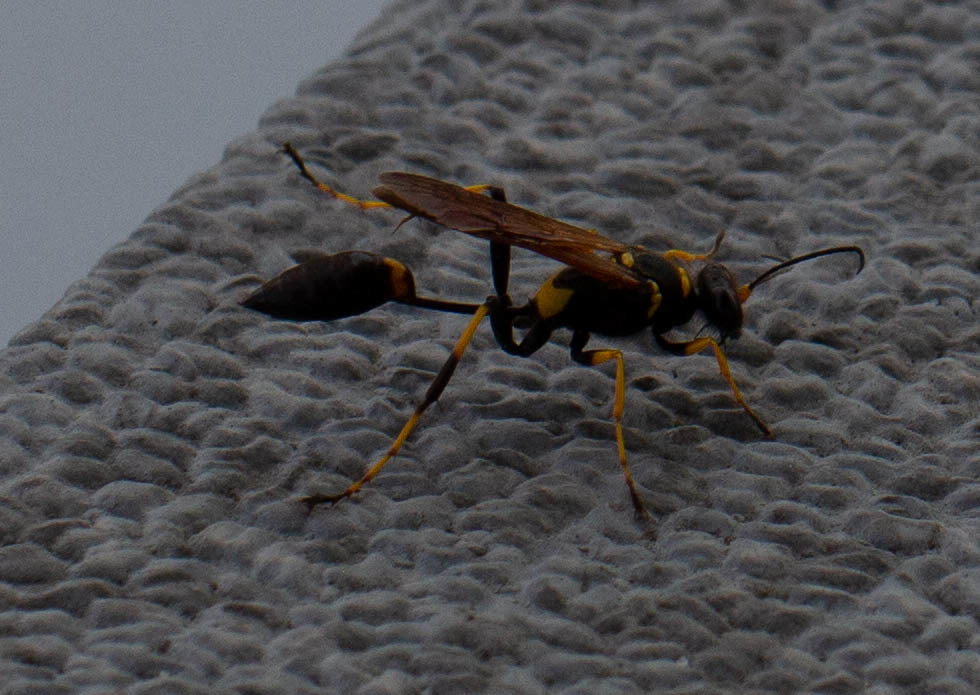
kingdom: Animalia
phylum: Arthropoda
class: Insecta
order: Hymenoptera
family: Sphecidae
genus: Sceliphron
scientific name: Sceliphron caementarium
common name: Mud dauber
